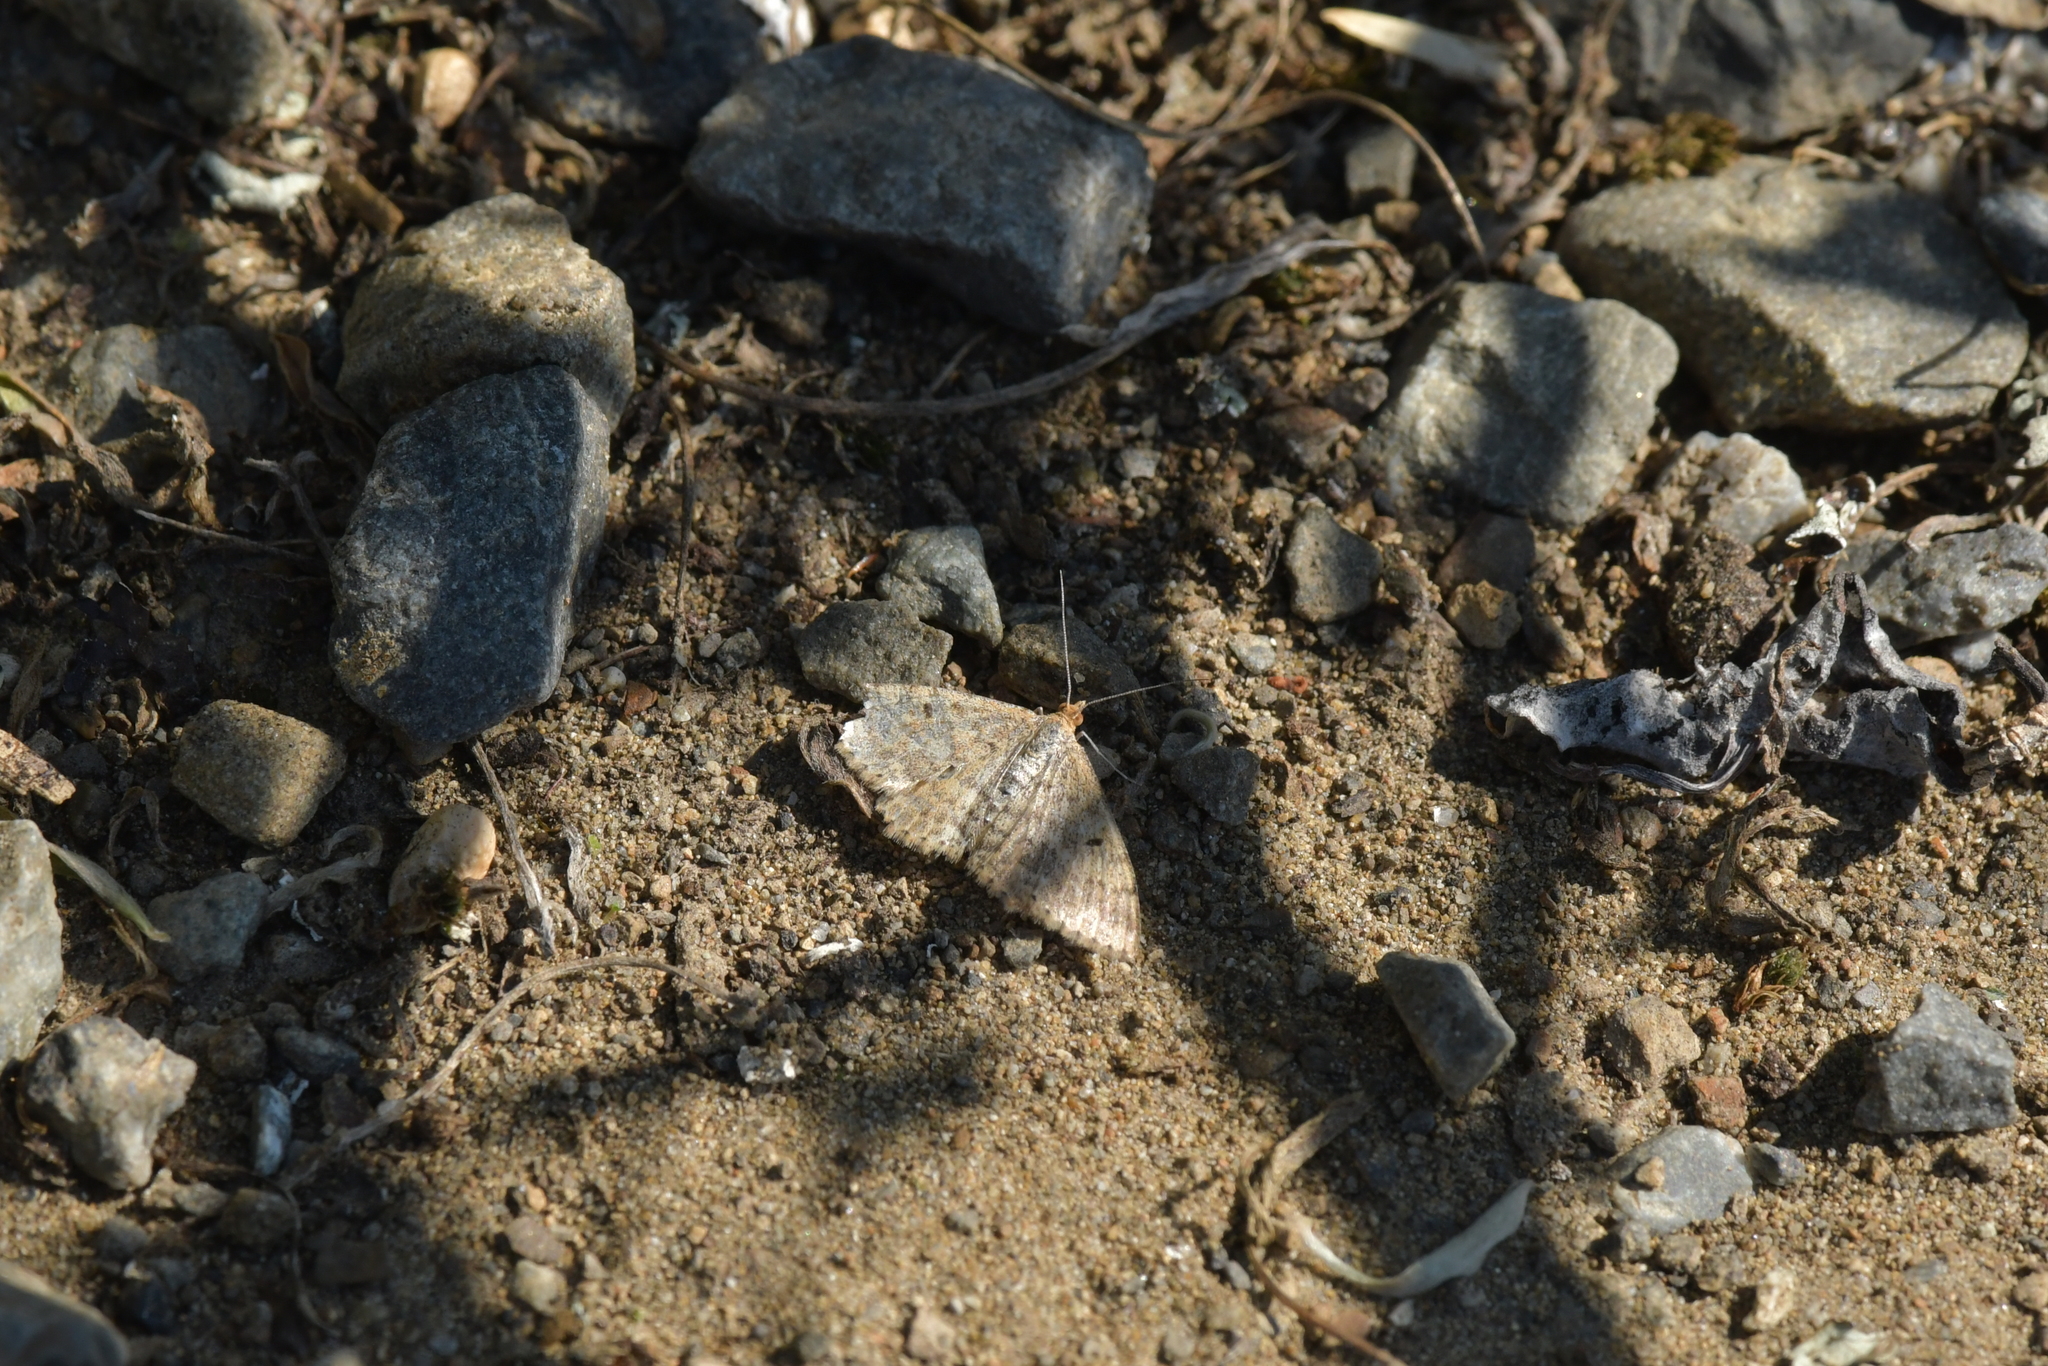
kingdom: Animalia
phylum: Arthropoda
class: Insecta
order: Lepidoptera
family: Geometridae
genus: Scopula
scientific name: Scopula rubraria
